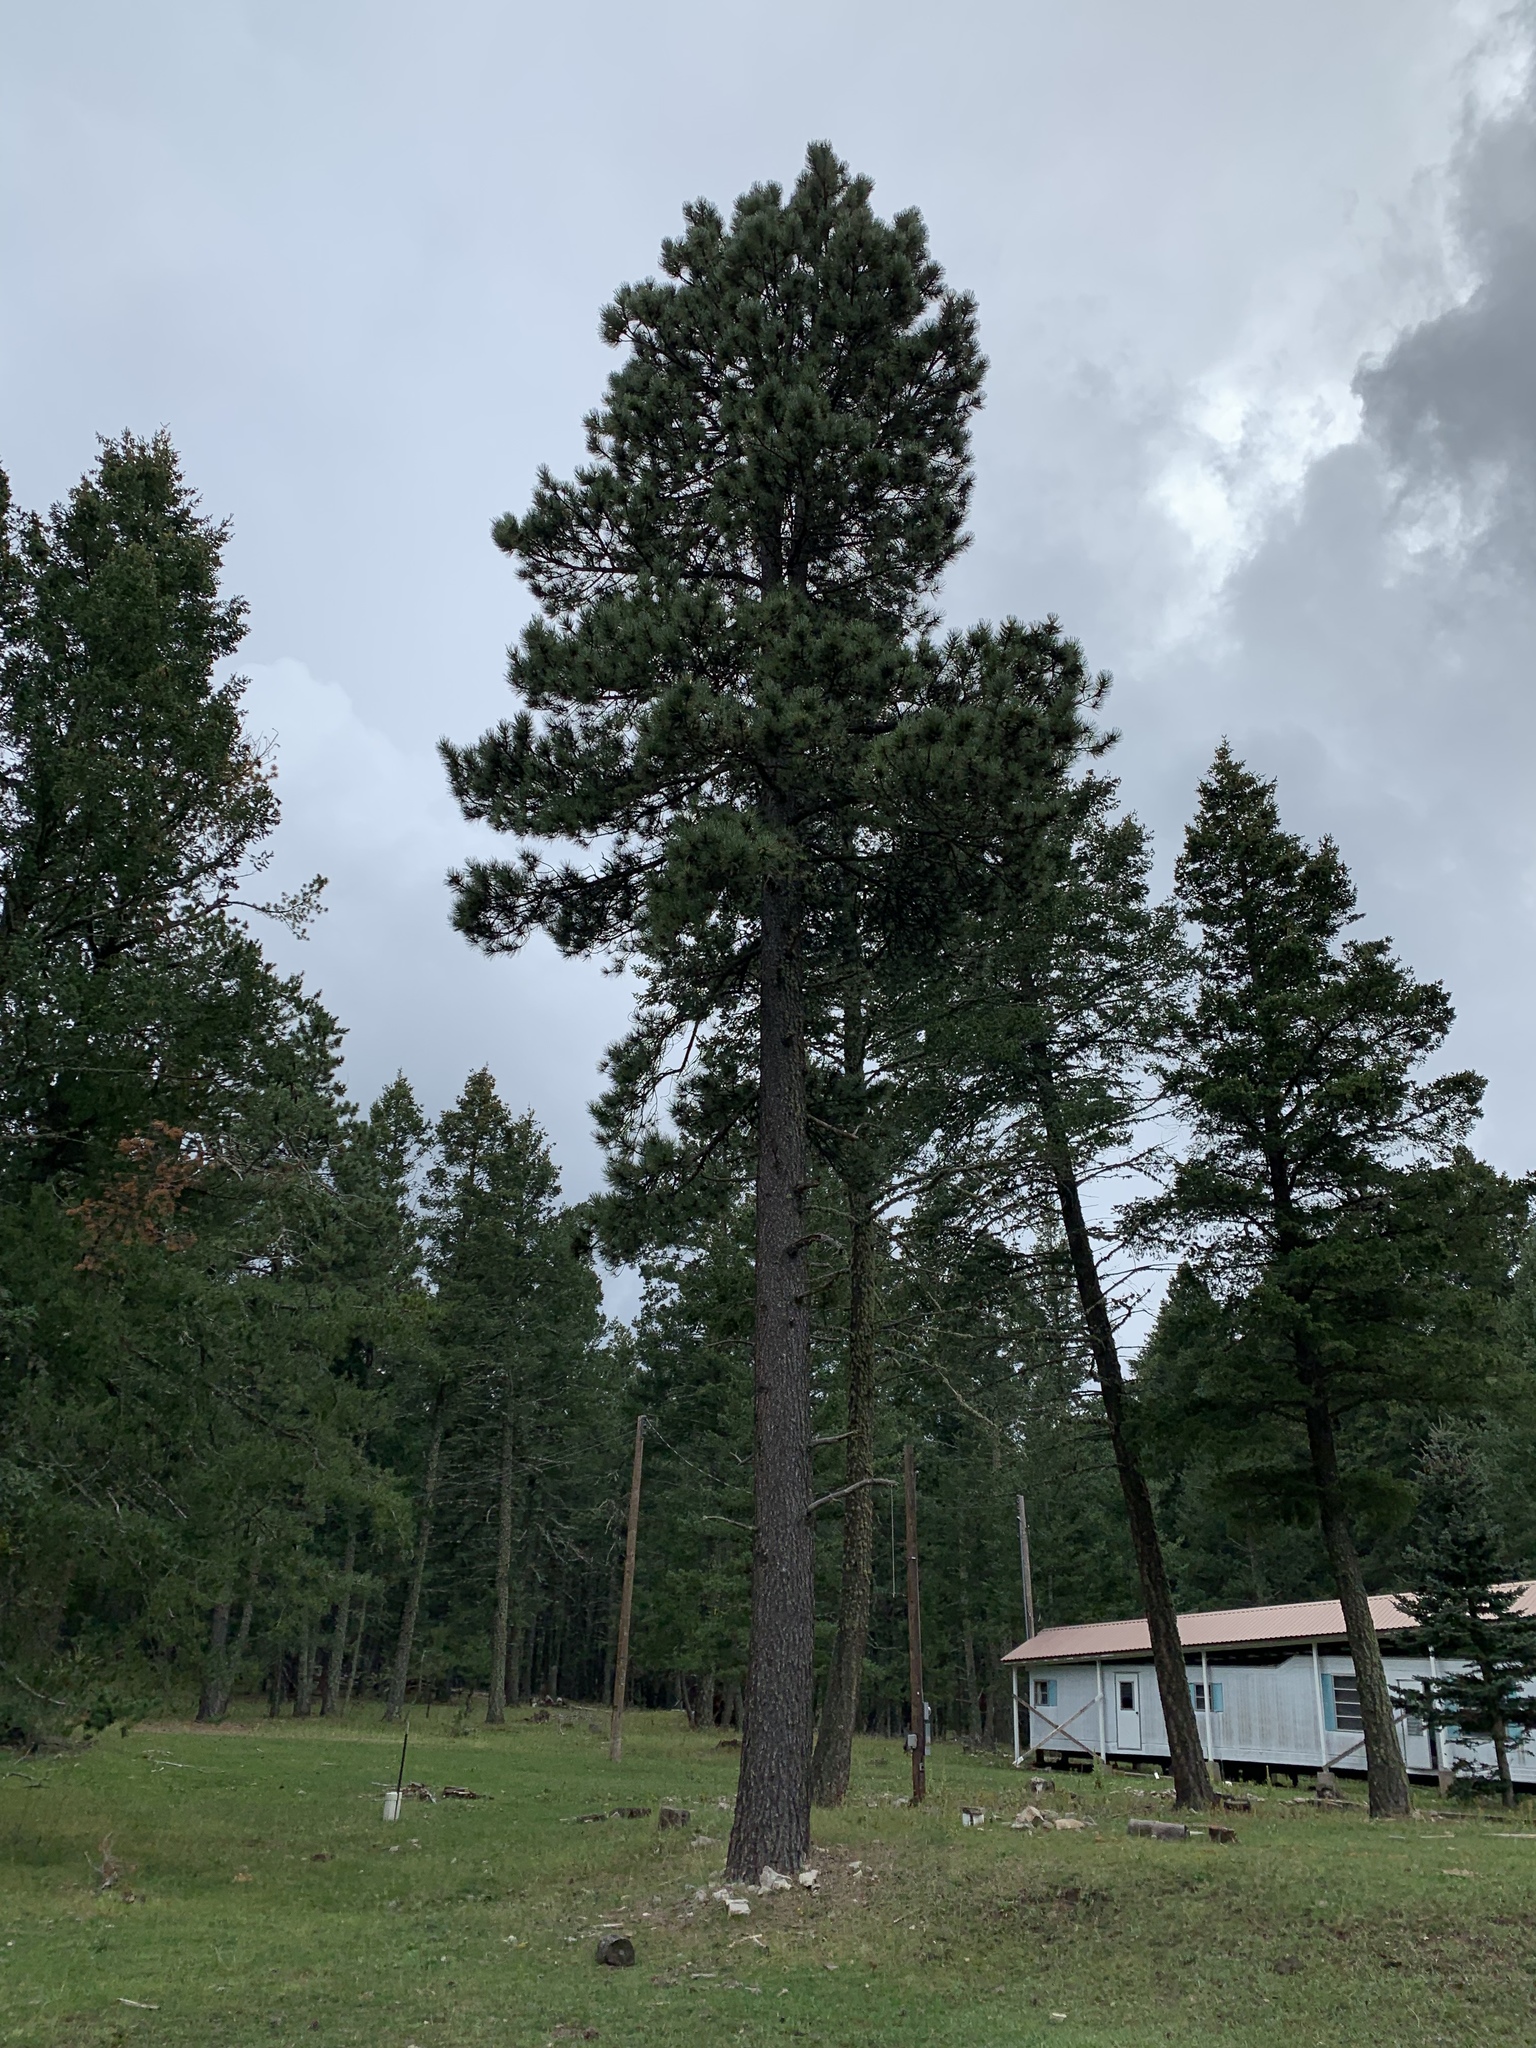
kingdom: Plantae
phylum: Tracheophyta
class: Pinopsida
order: Pinales
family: Pinaceae
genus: Pinus
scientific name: Pinus ponderosa
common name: Western yellow-pine
